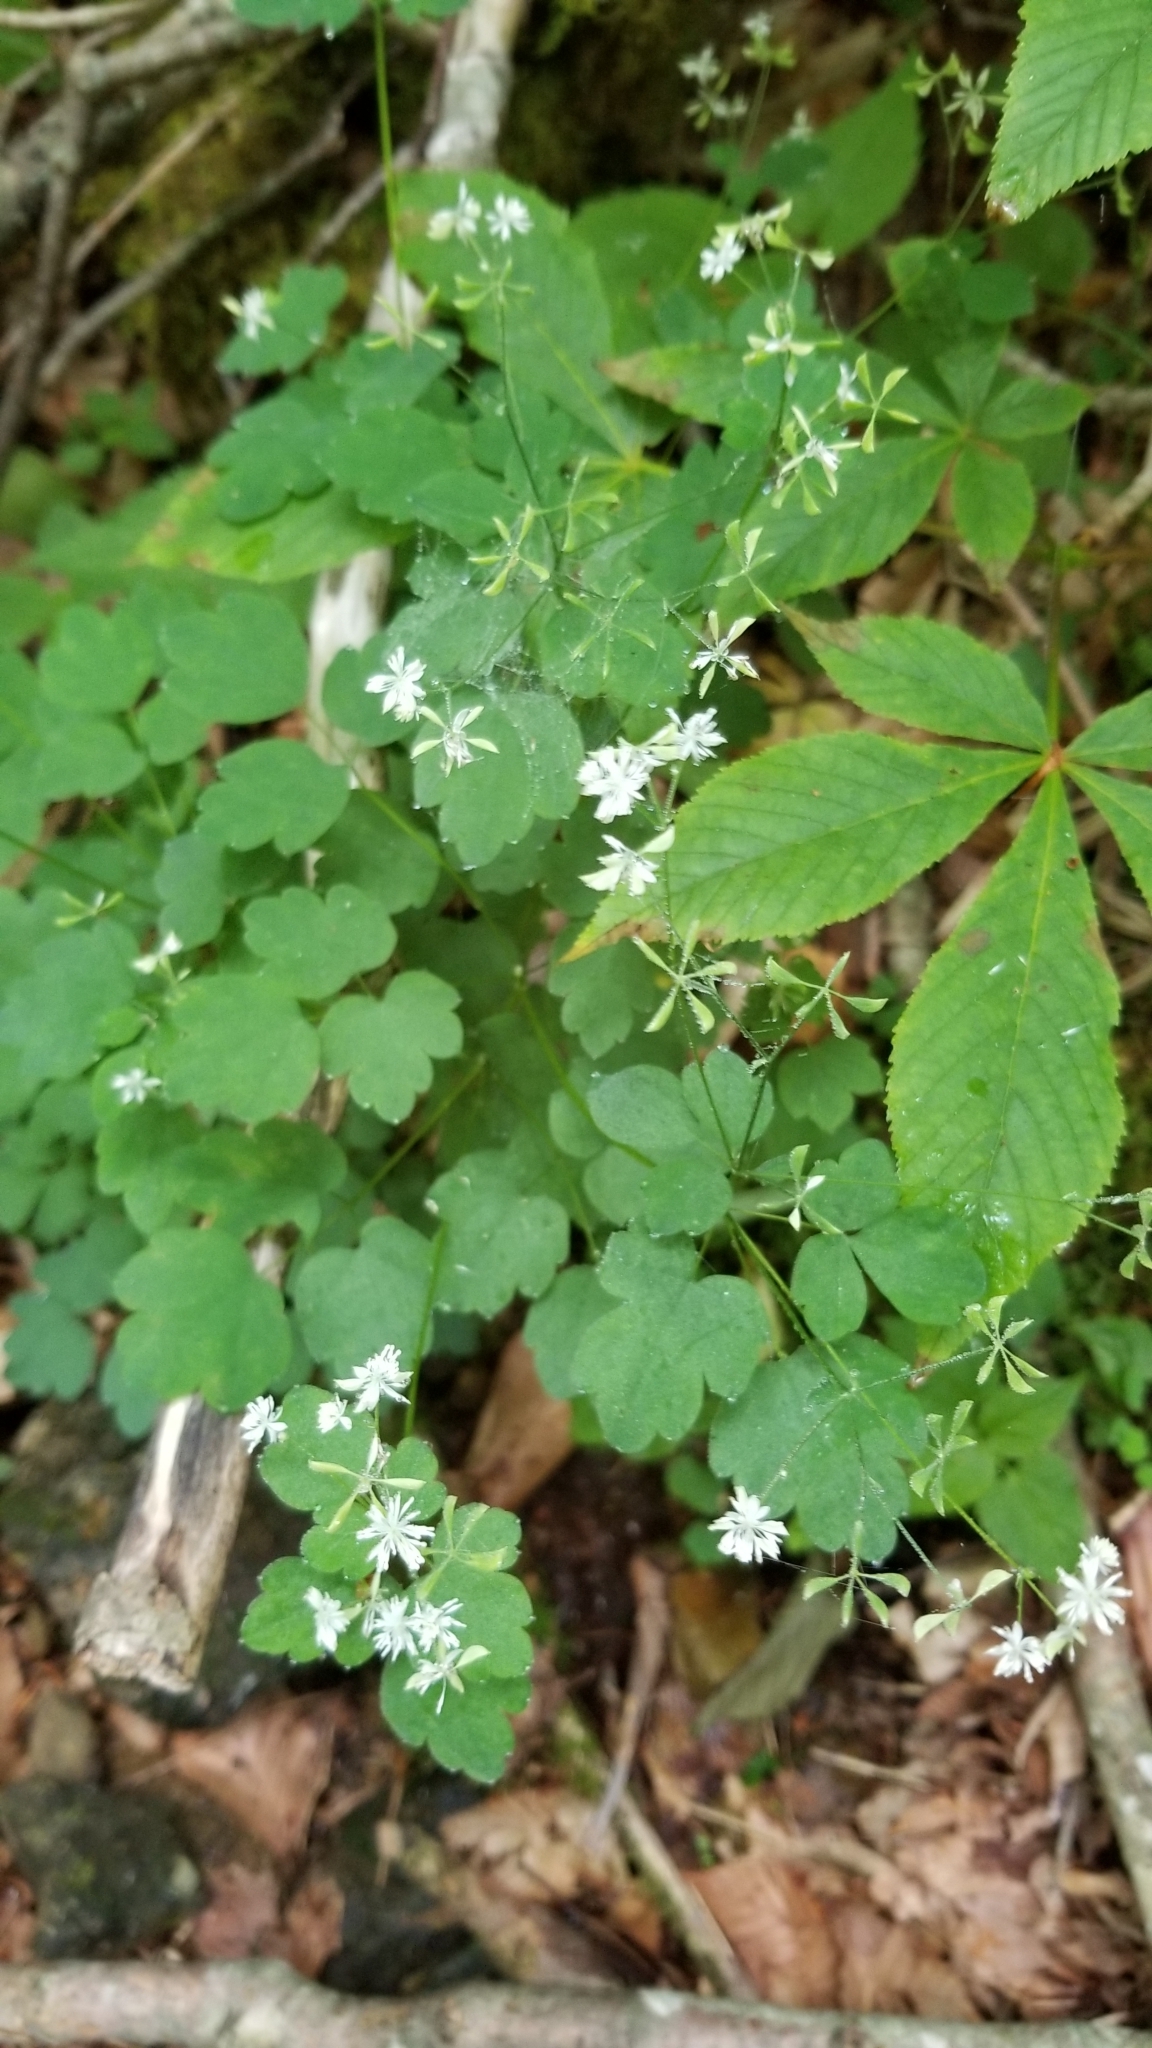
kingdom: Plantae
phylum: Tracheophyta
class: Magnoliopsida
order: Ranunculales
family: Ranunculaceae
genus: Thalictrum
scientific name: Thalictrum clavatum
